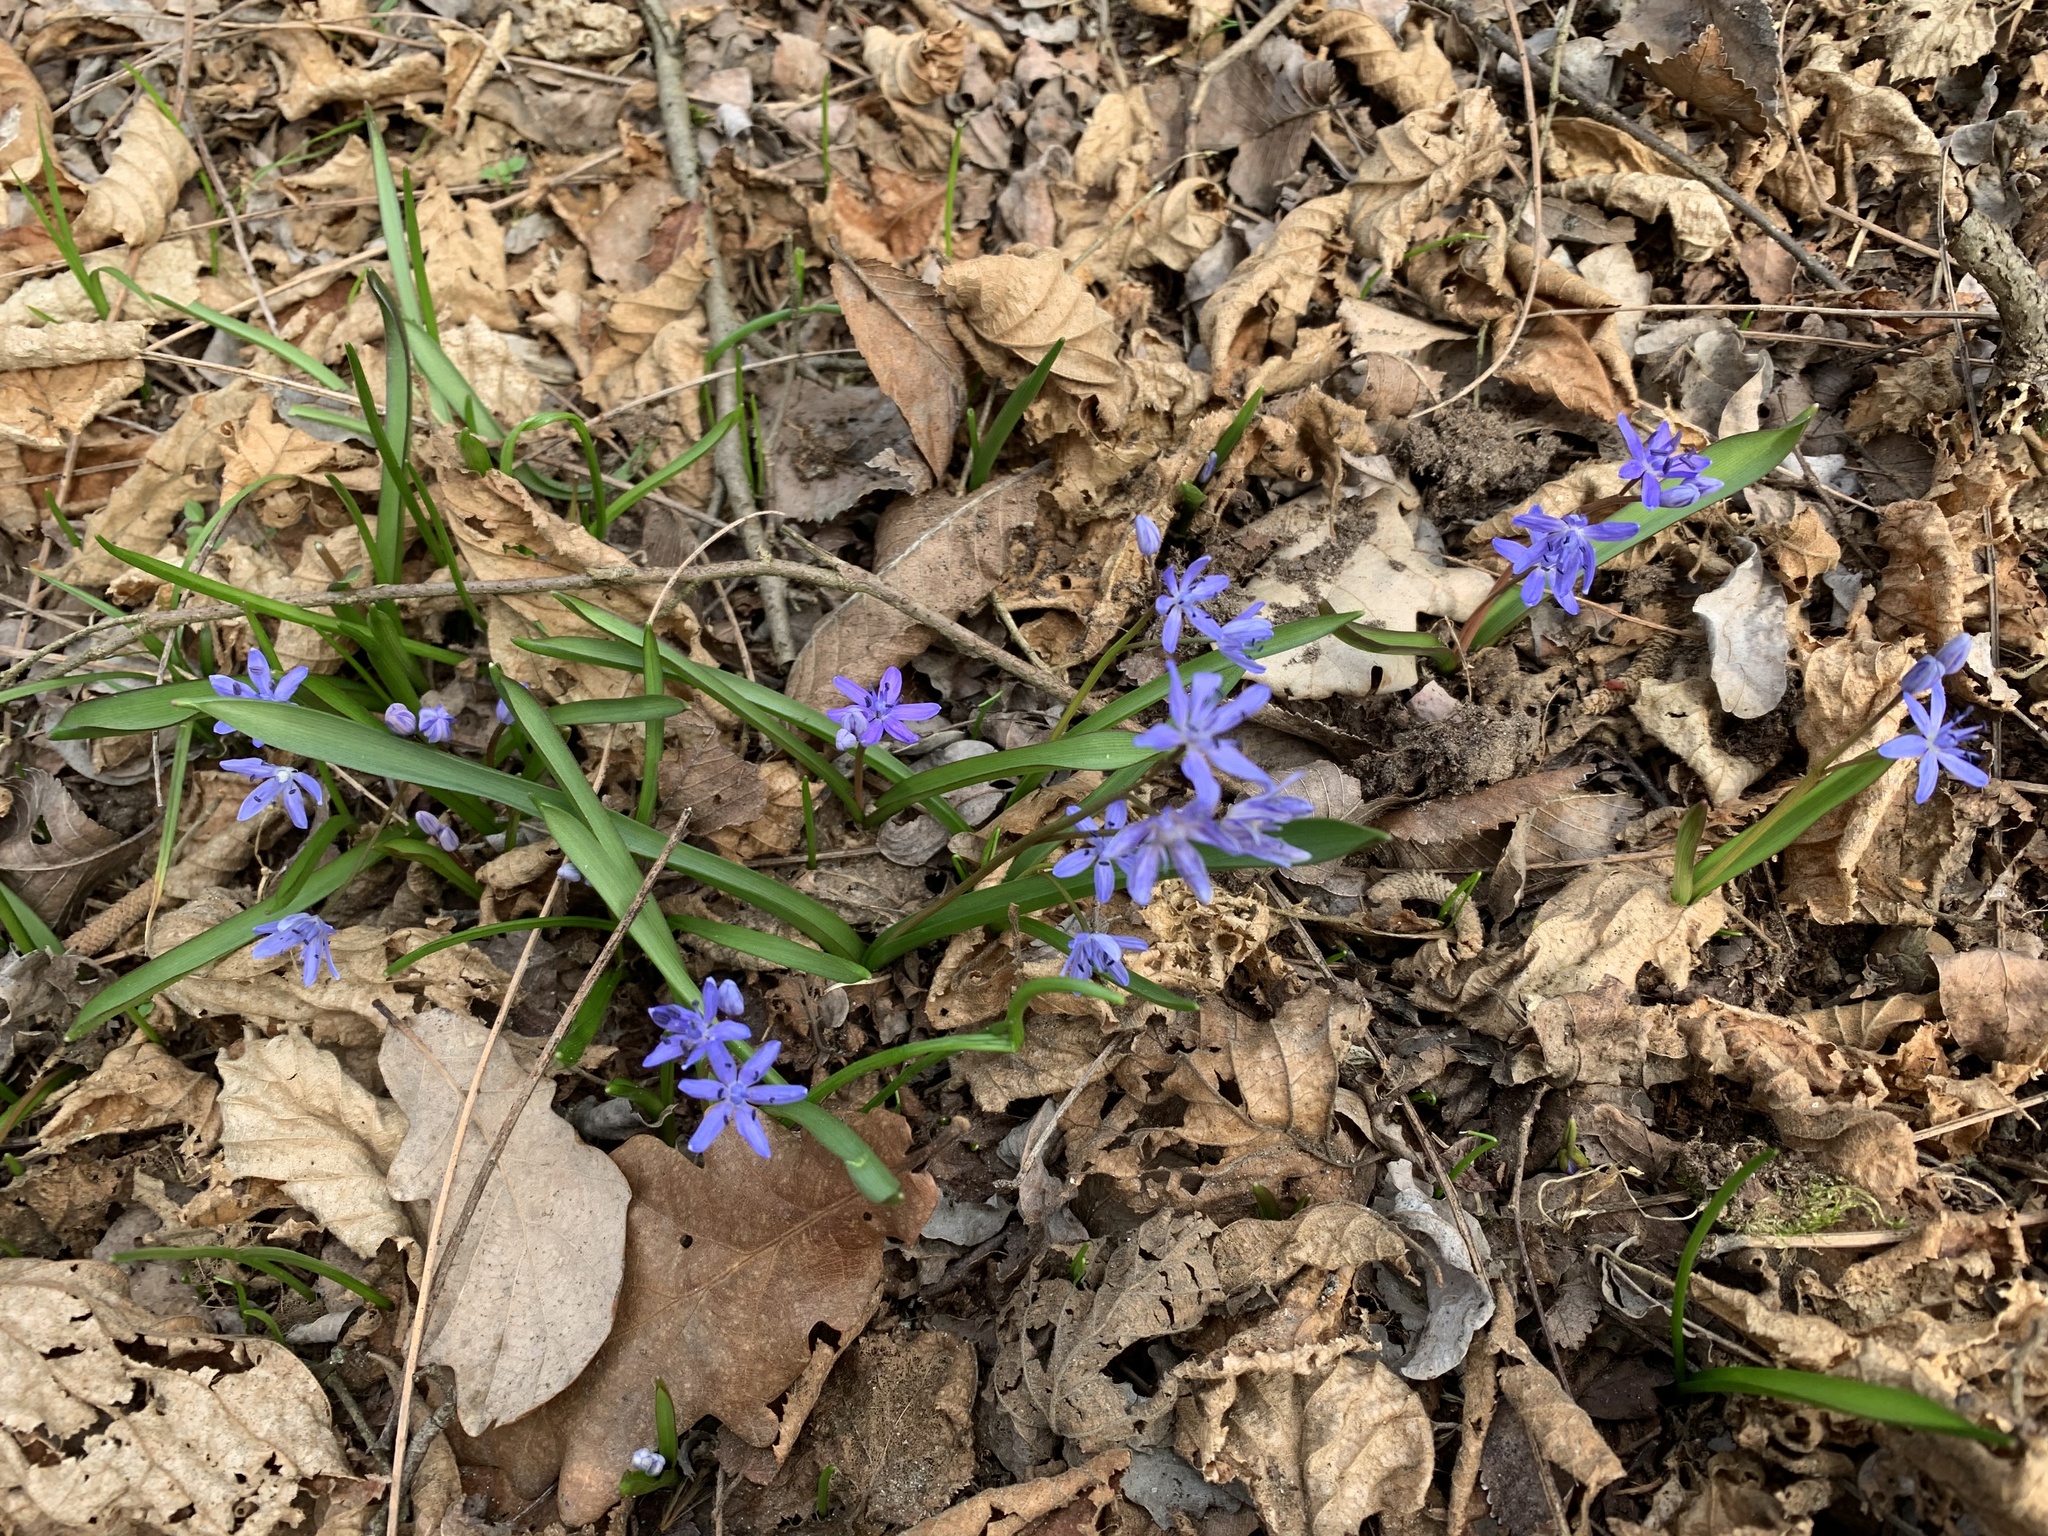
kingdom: Plantae
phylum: Tracheophyta
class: Liliopsida
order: Asparagales
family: Asparagaceae
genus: Scilla
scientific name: Scilla bifolia
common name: Alpine squill
